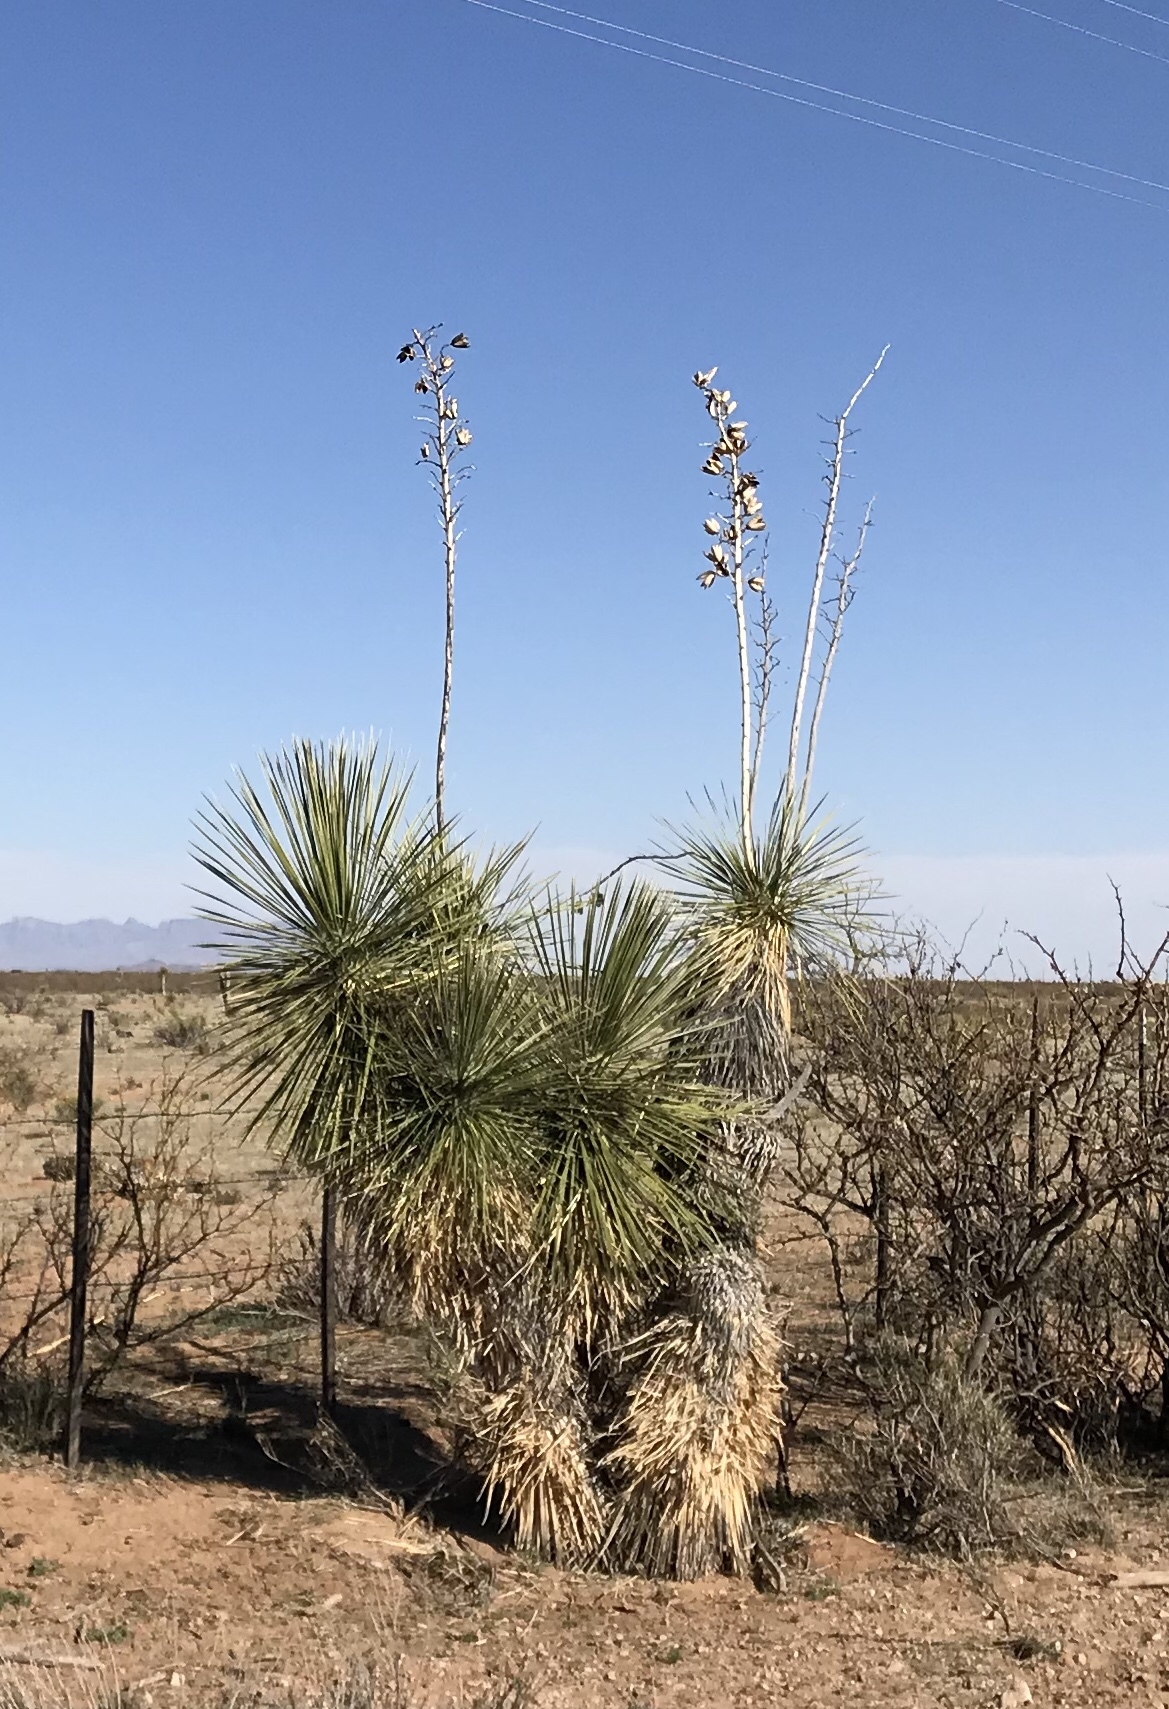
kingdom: Plantae
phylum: Tracheophyta
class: Liliopsida
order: Asparagales
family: Asparagaceae
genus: Yucca
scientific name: Yucca elata
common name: Palmella
